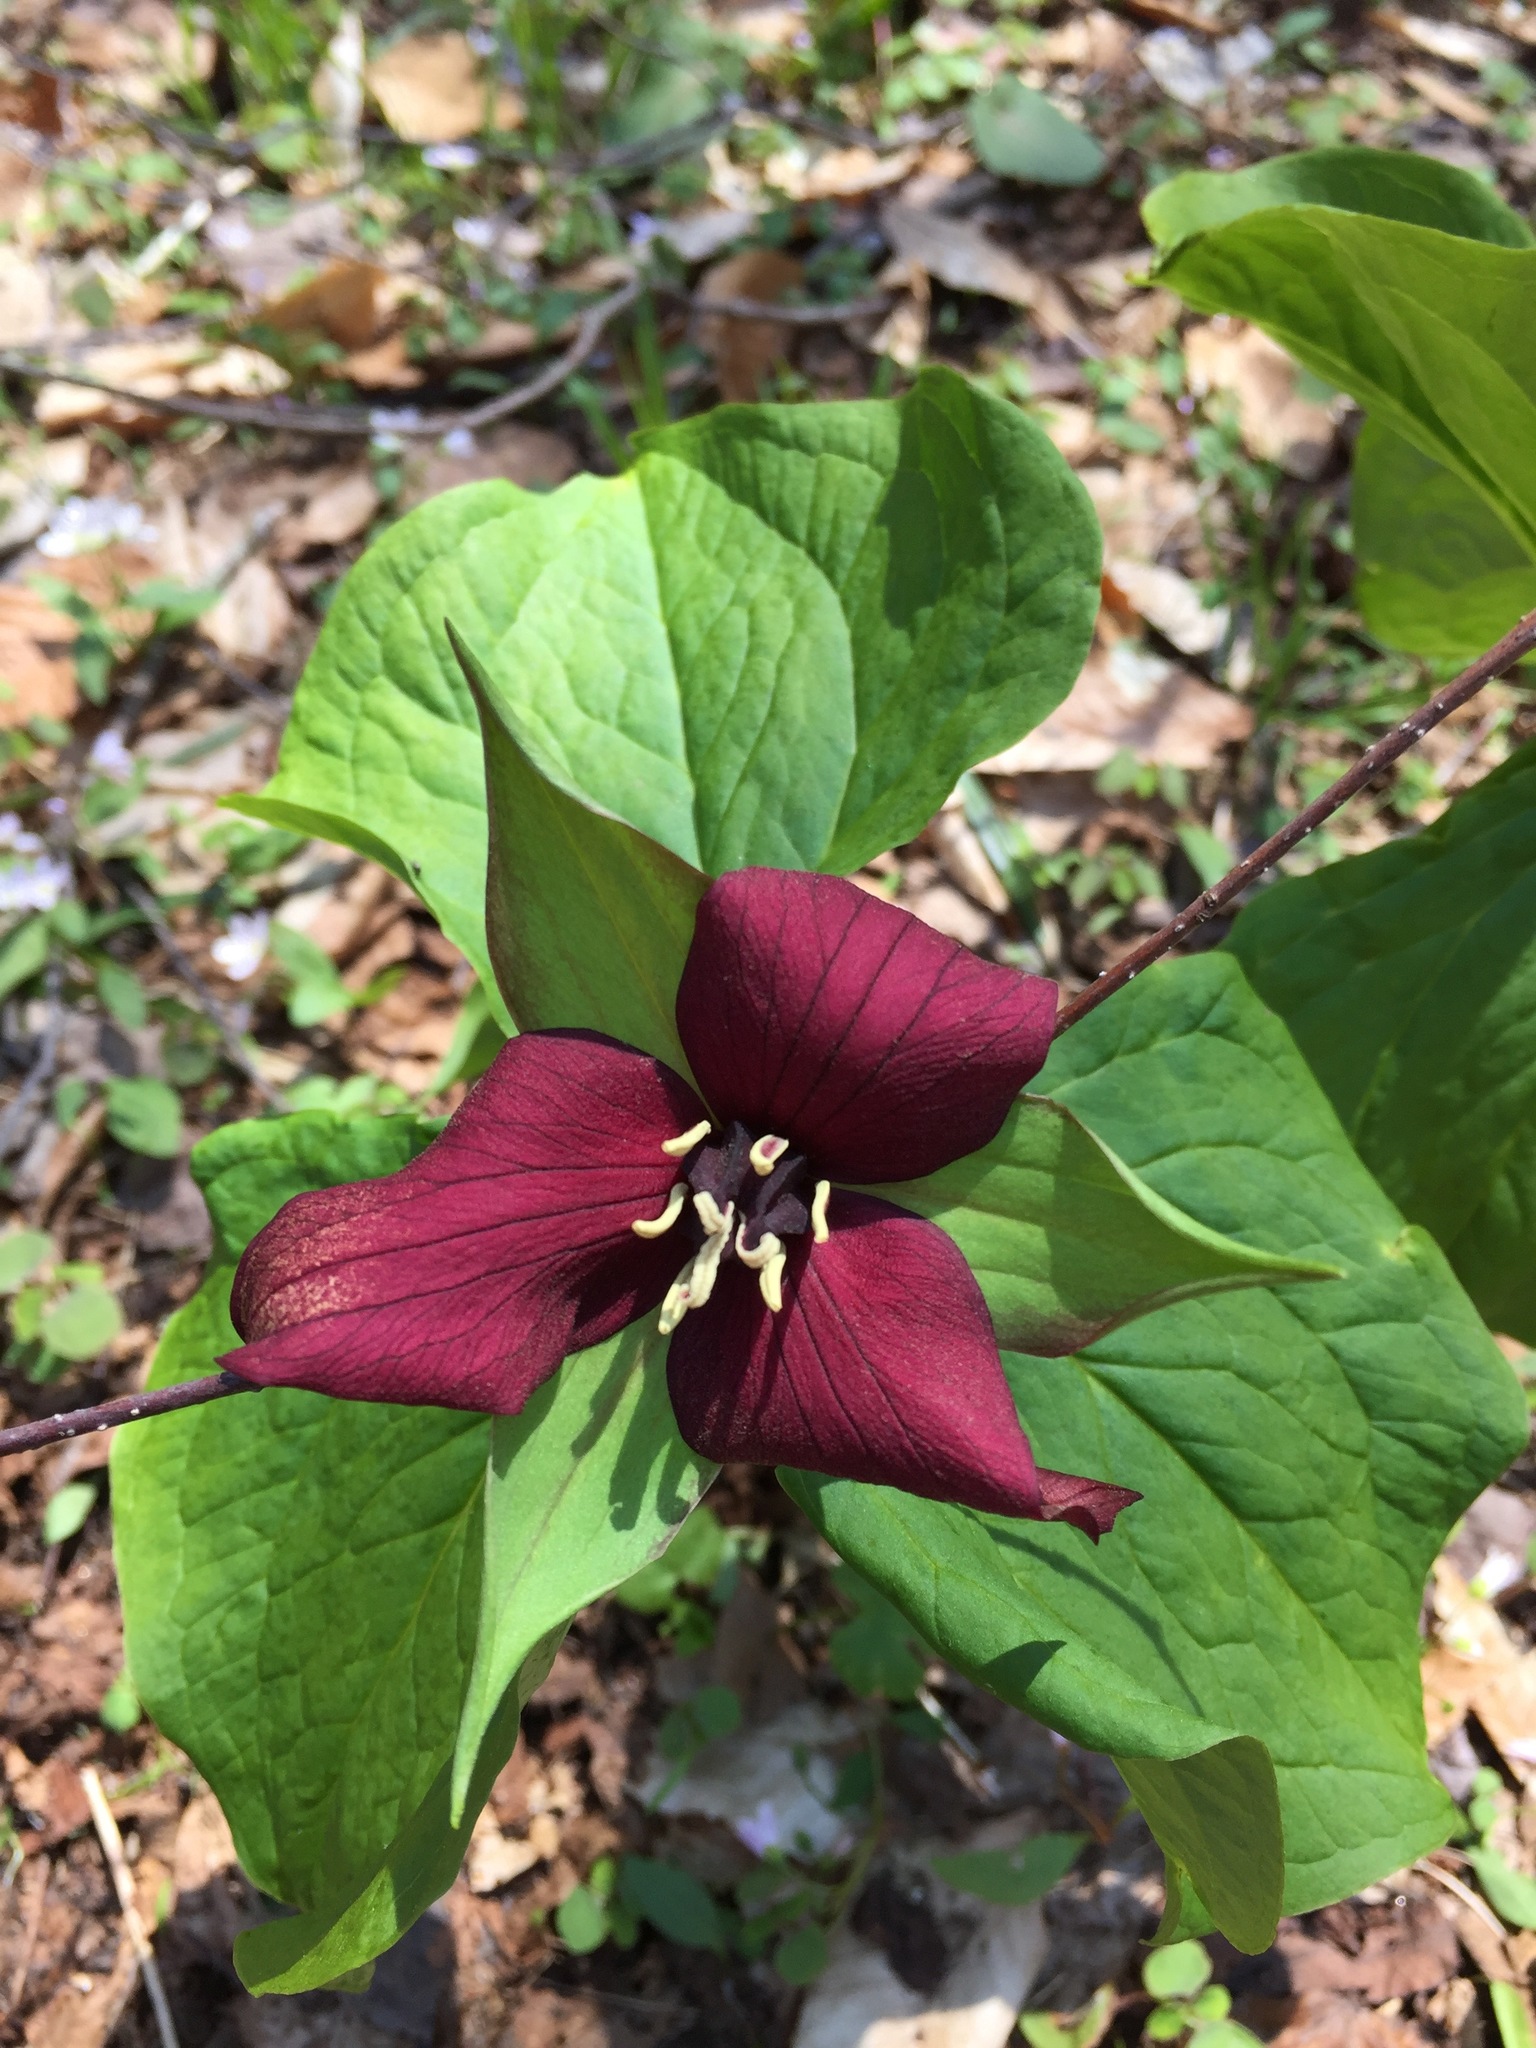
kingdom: Plantae
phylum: Tracheophyta
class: Liliopsida
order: Liliales
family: Melanthiaceae
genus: Trillium
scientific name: Trillium erectum
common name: Purple trillium
